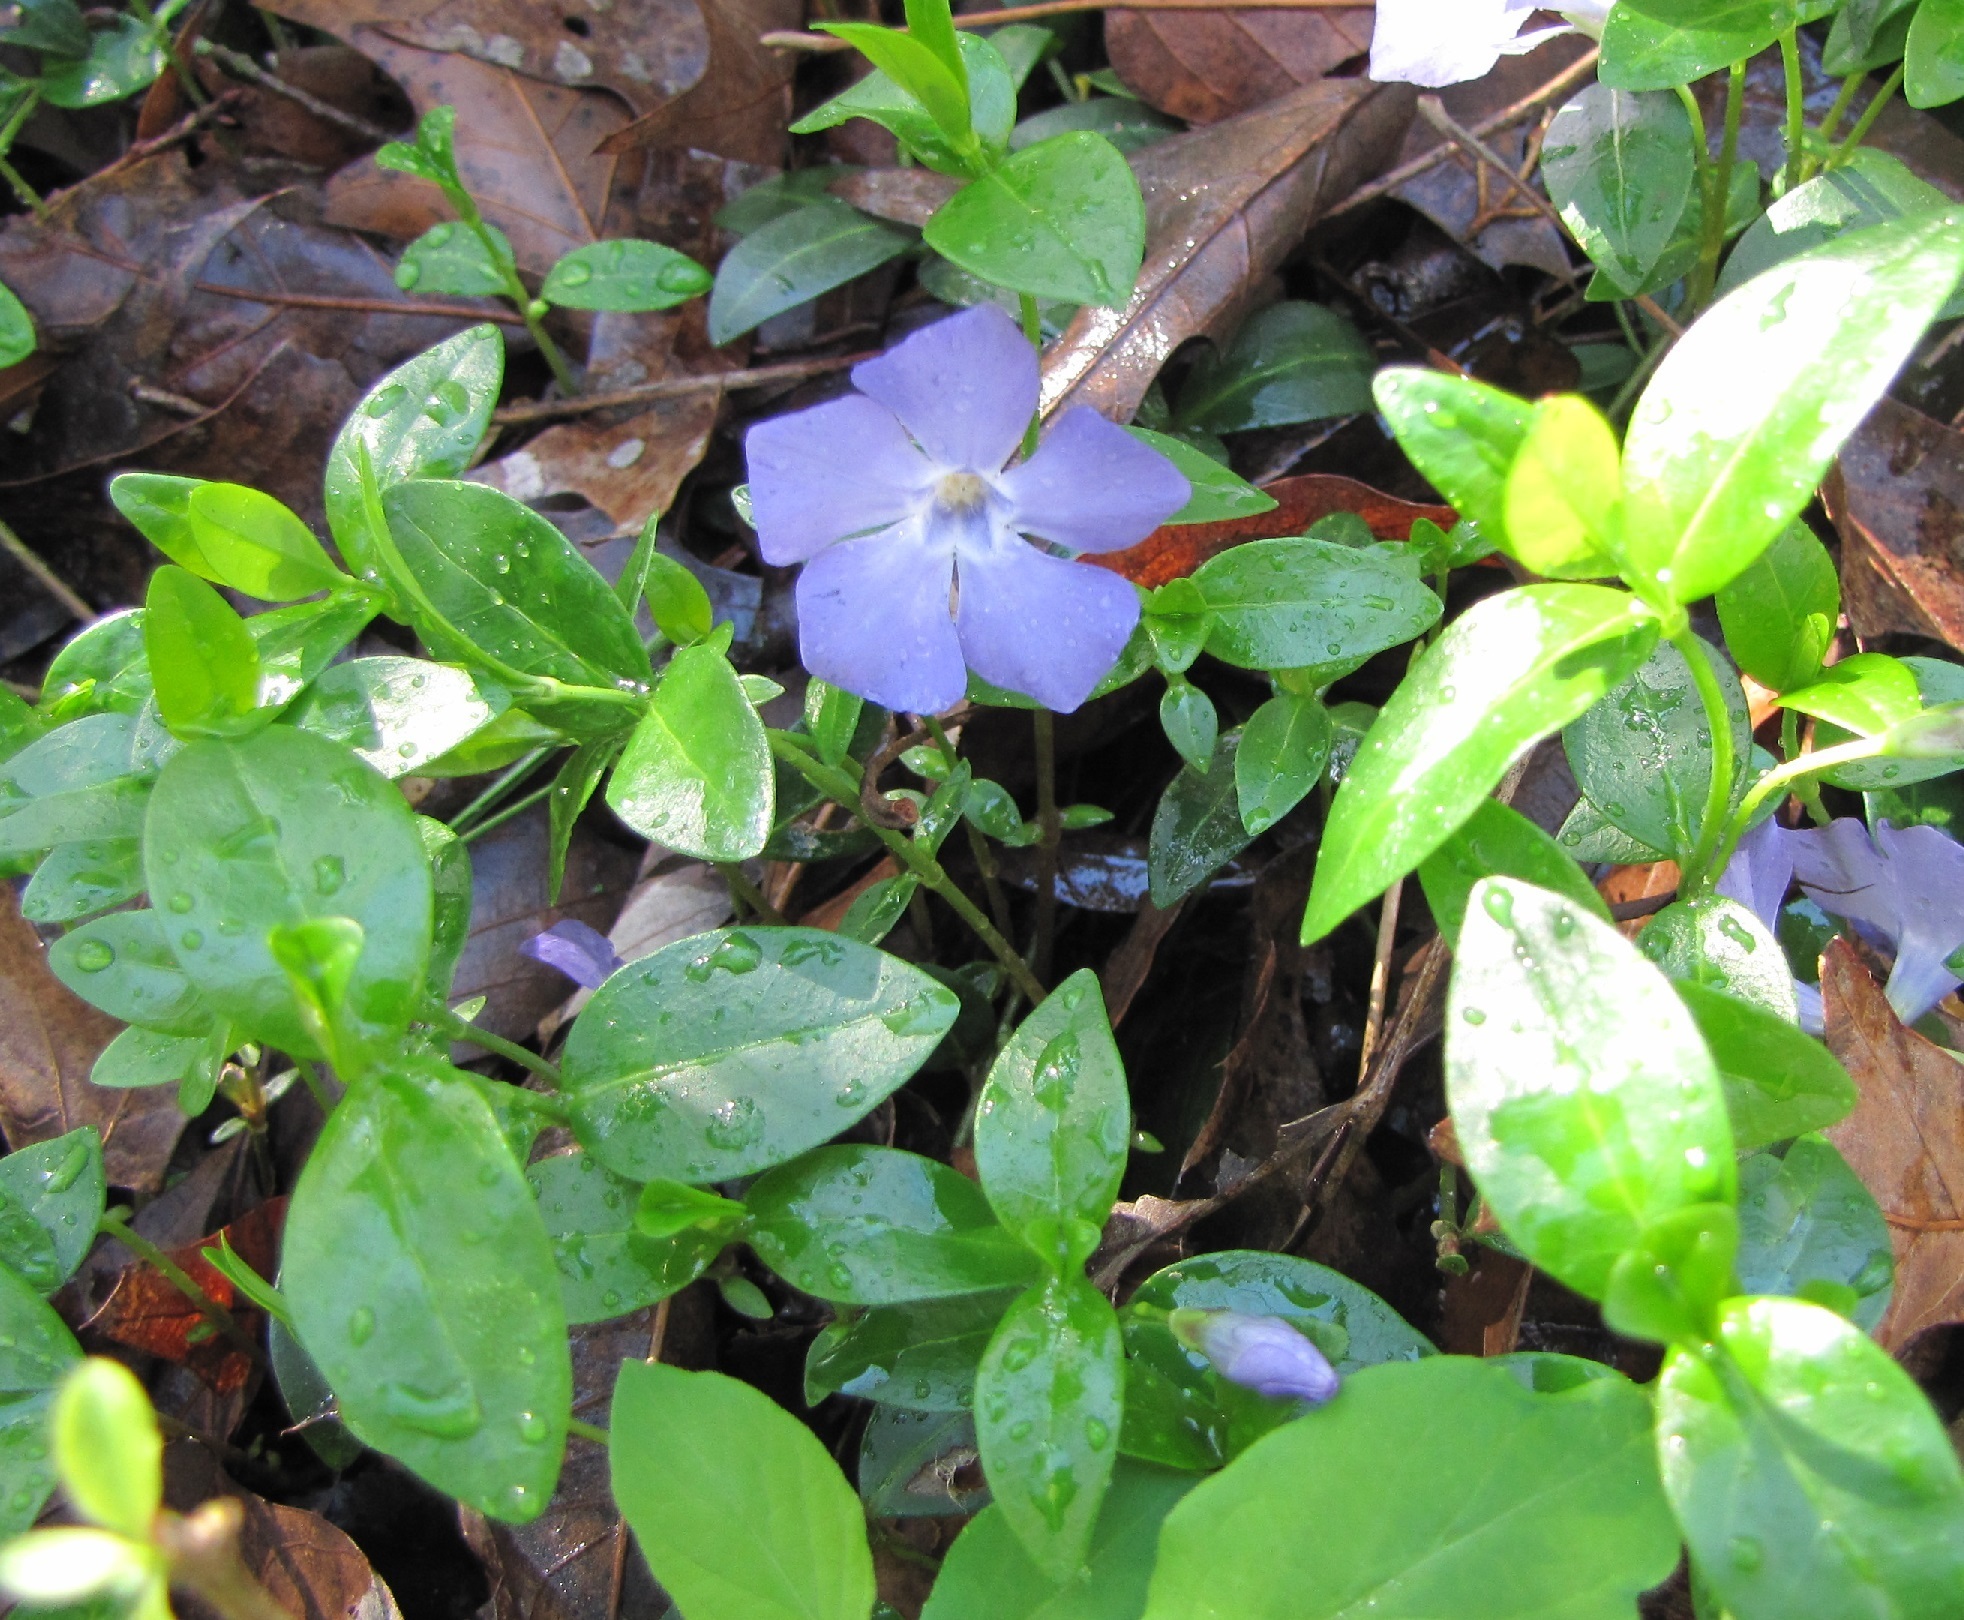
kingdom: Plantae
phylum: Tracheophyta
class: Magnoliopsida
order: Gentianales
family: Apocynaceae
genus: Vinca
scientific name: Vinca minor
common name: Lesser periwinkle
